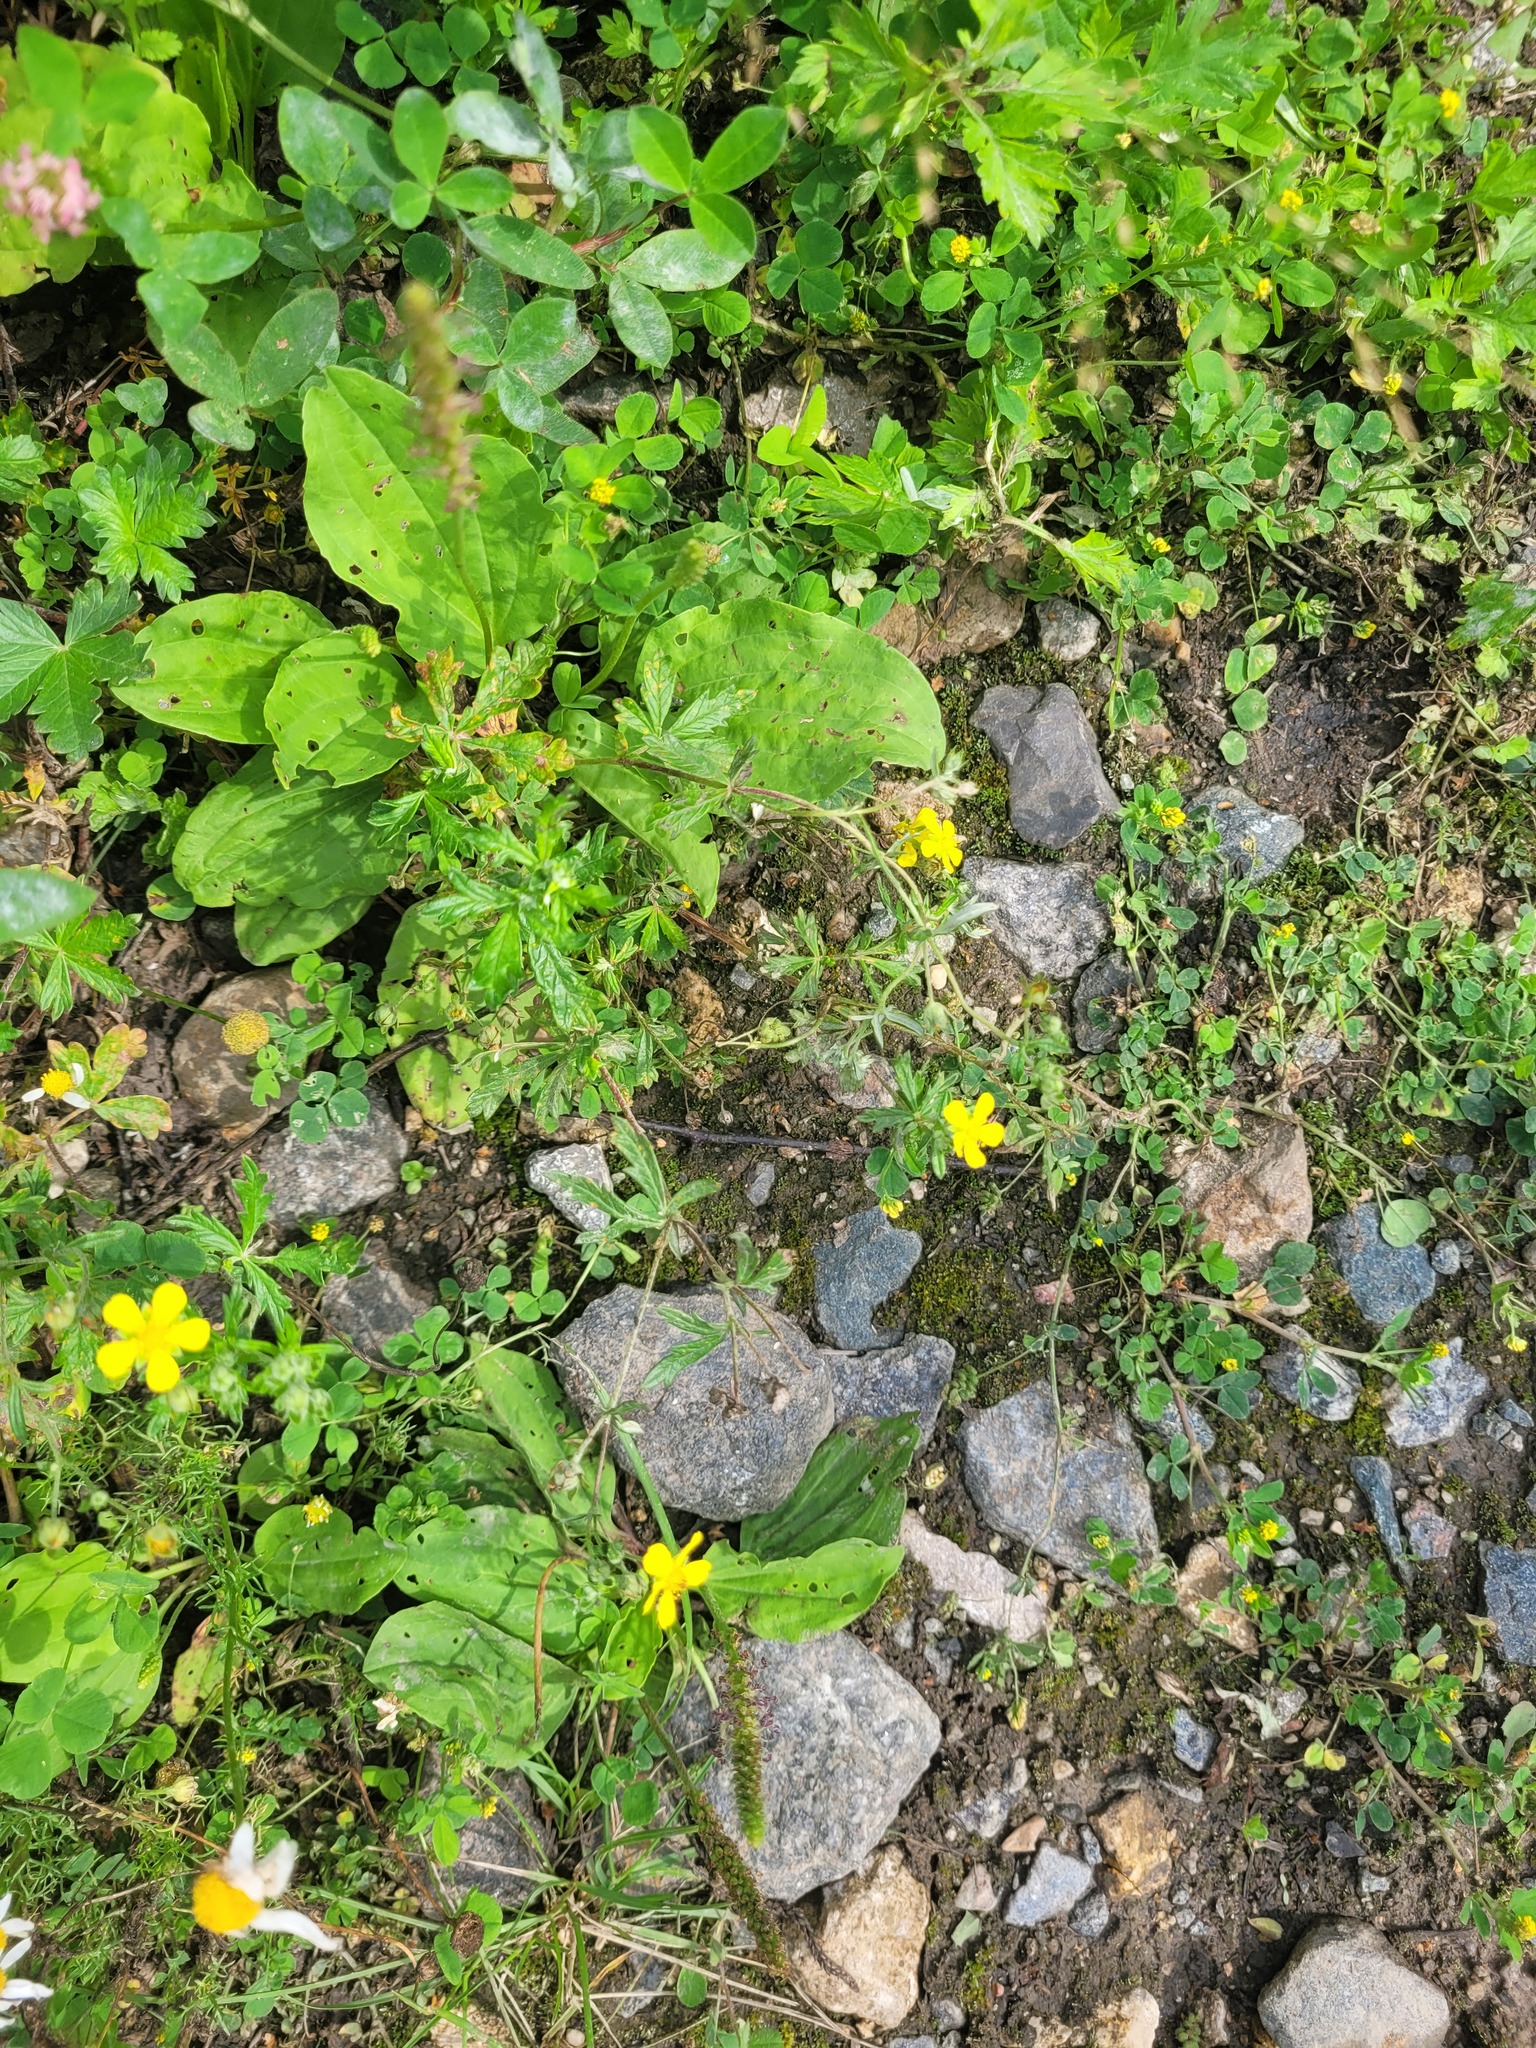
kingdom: Plantae
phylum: Tracheophyta
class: Magnoliopsida
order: Rosales
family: Rosaceae
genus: Potentilla
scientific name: Potentilla argentea
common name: Hoary cinquefoil
